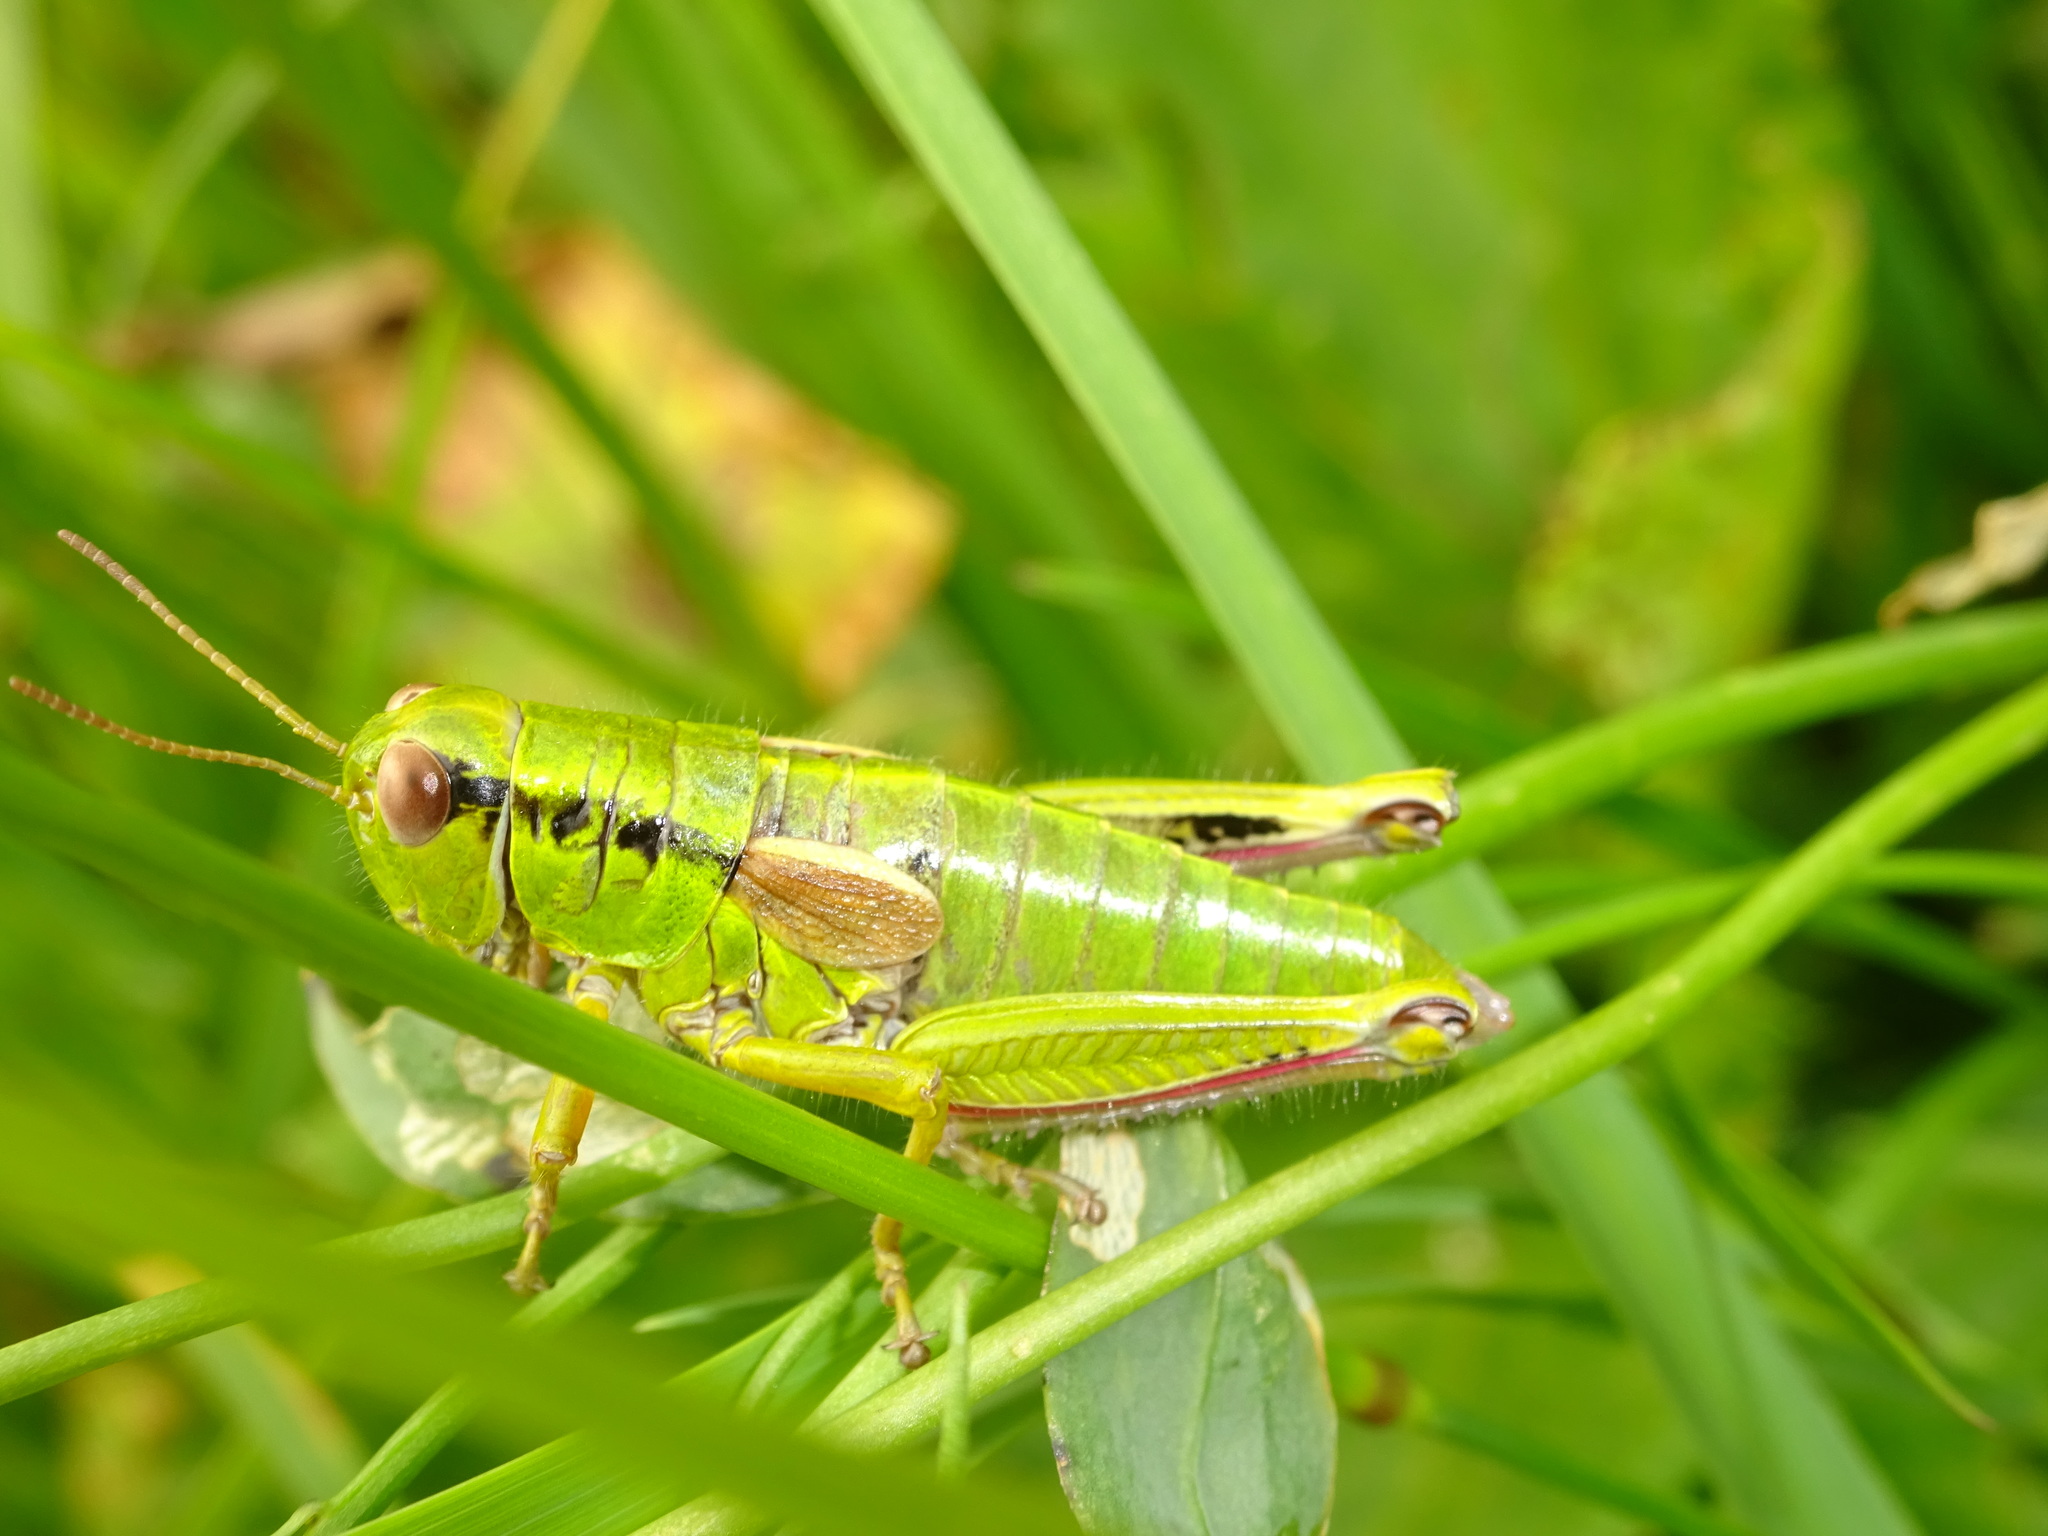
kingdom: Animalia
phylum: Arthropoda
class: Insecta
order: Orthoptera
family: Acrididae
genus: Miramella
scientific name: Miramella alpina
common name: Green mountain grasshopper
